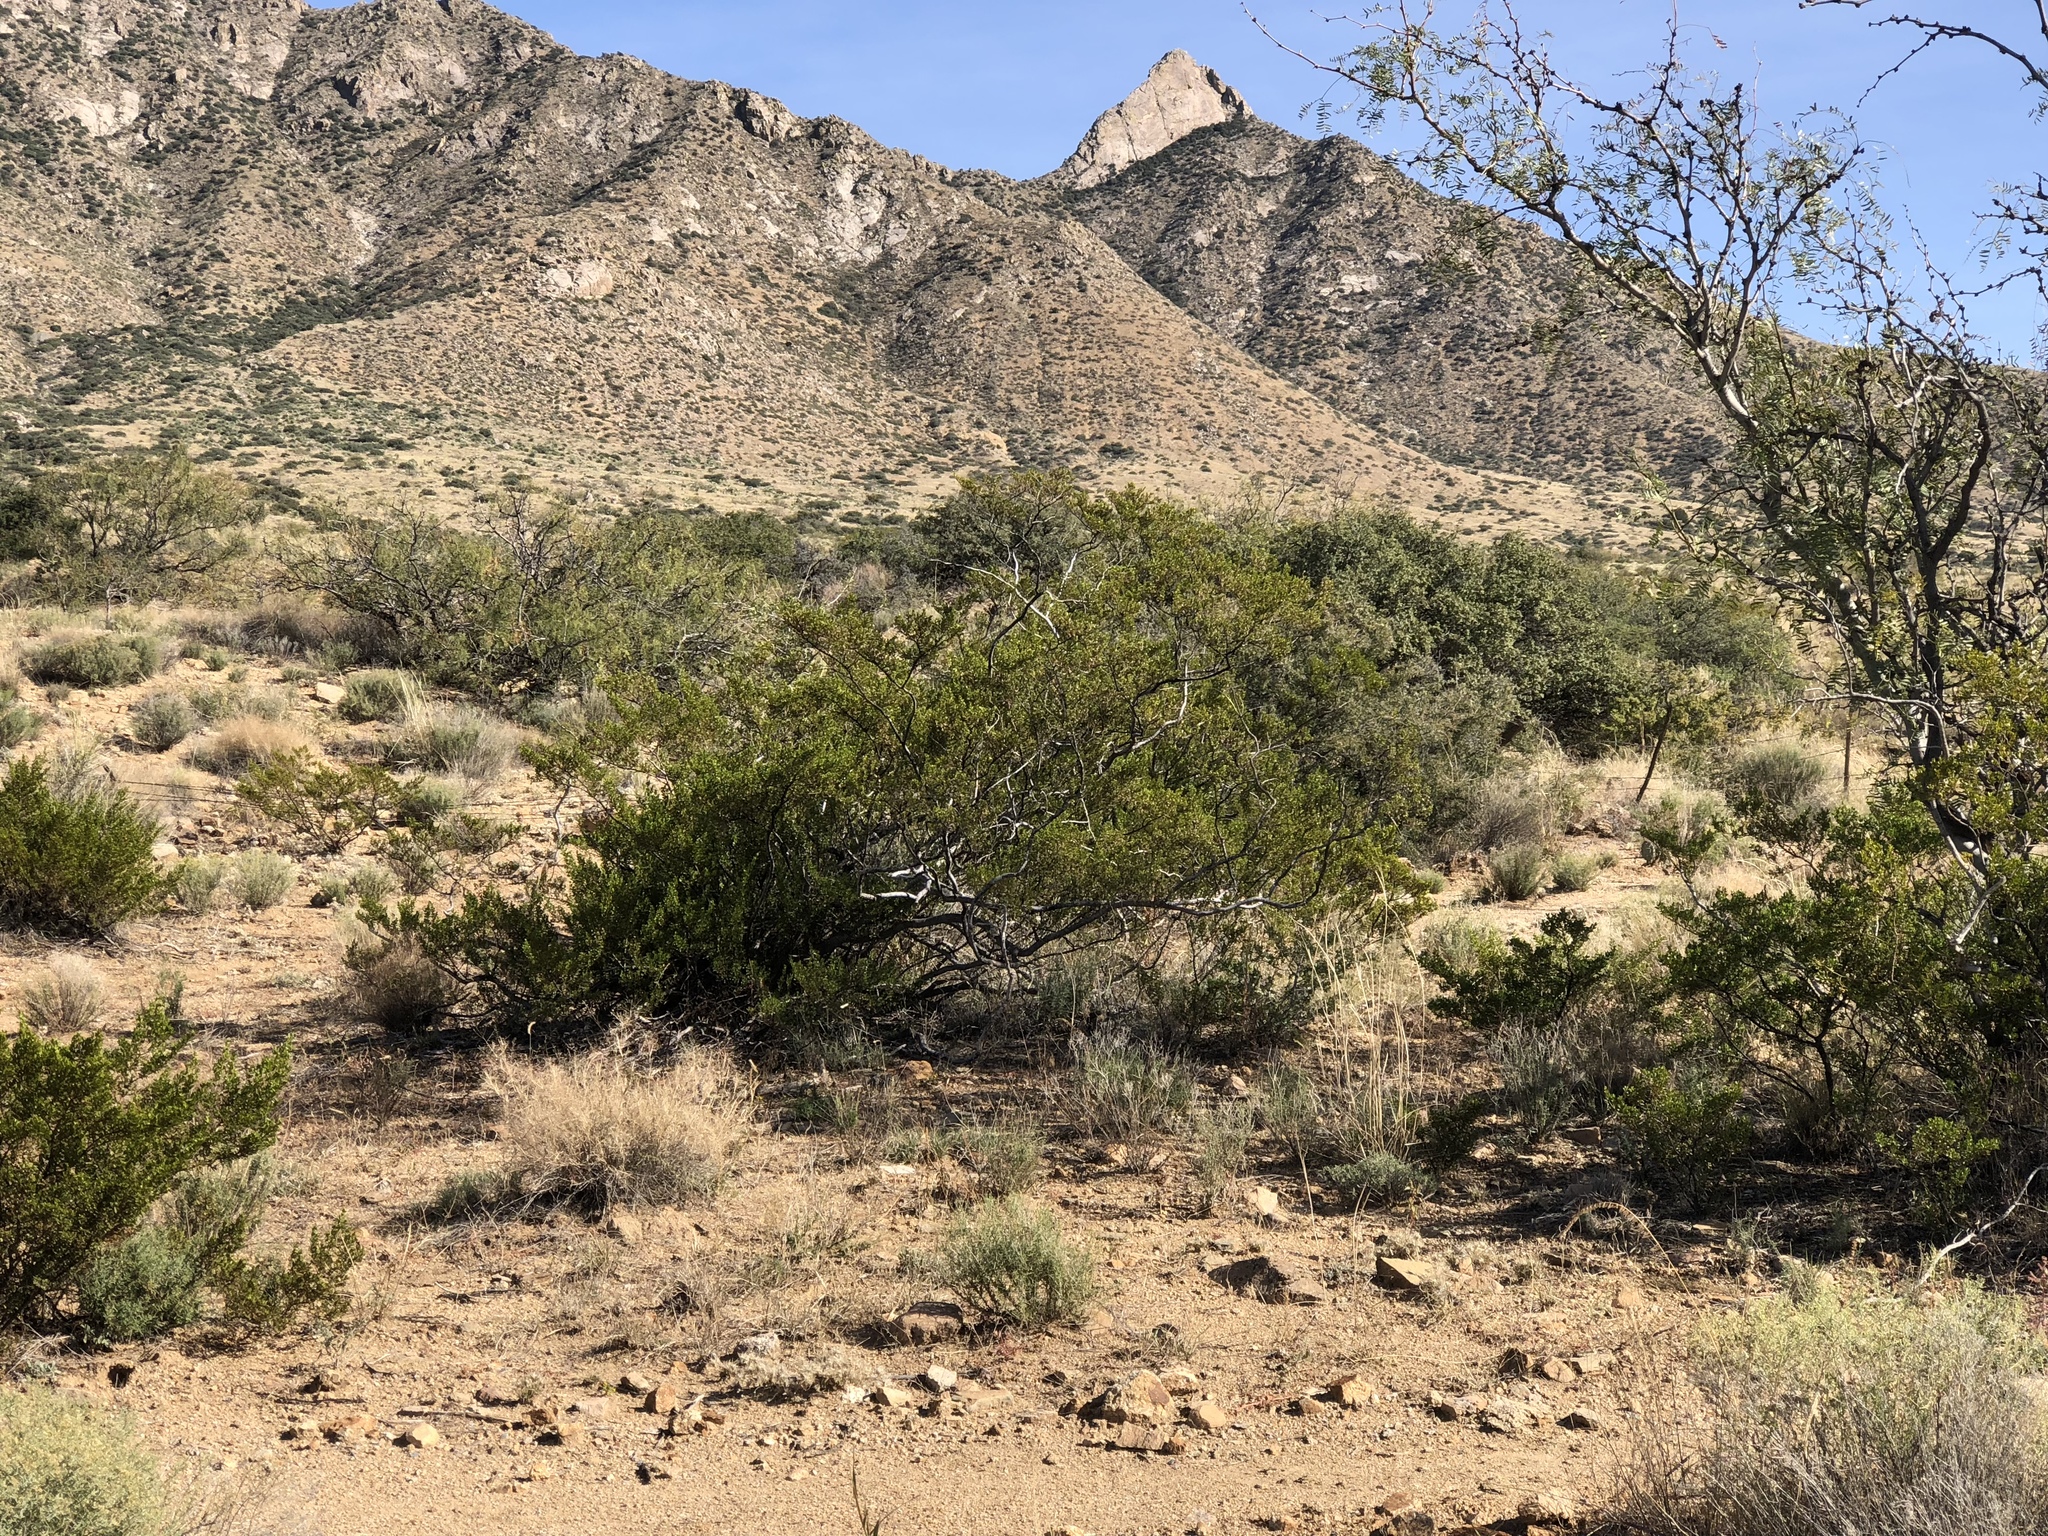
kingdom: Plantae
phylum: Tracheophyta
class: Magnoliopsida
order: Zygophyllales
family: Zygophyllaceae
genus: Larrea
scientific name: Larrea tridentata
